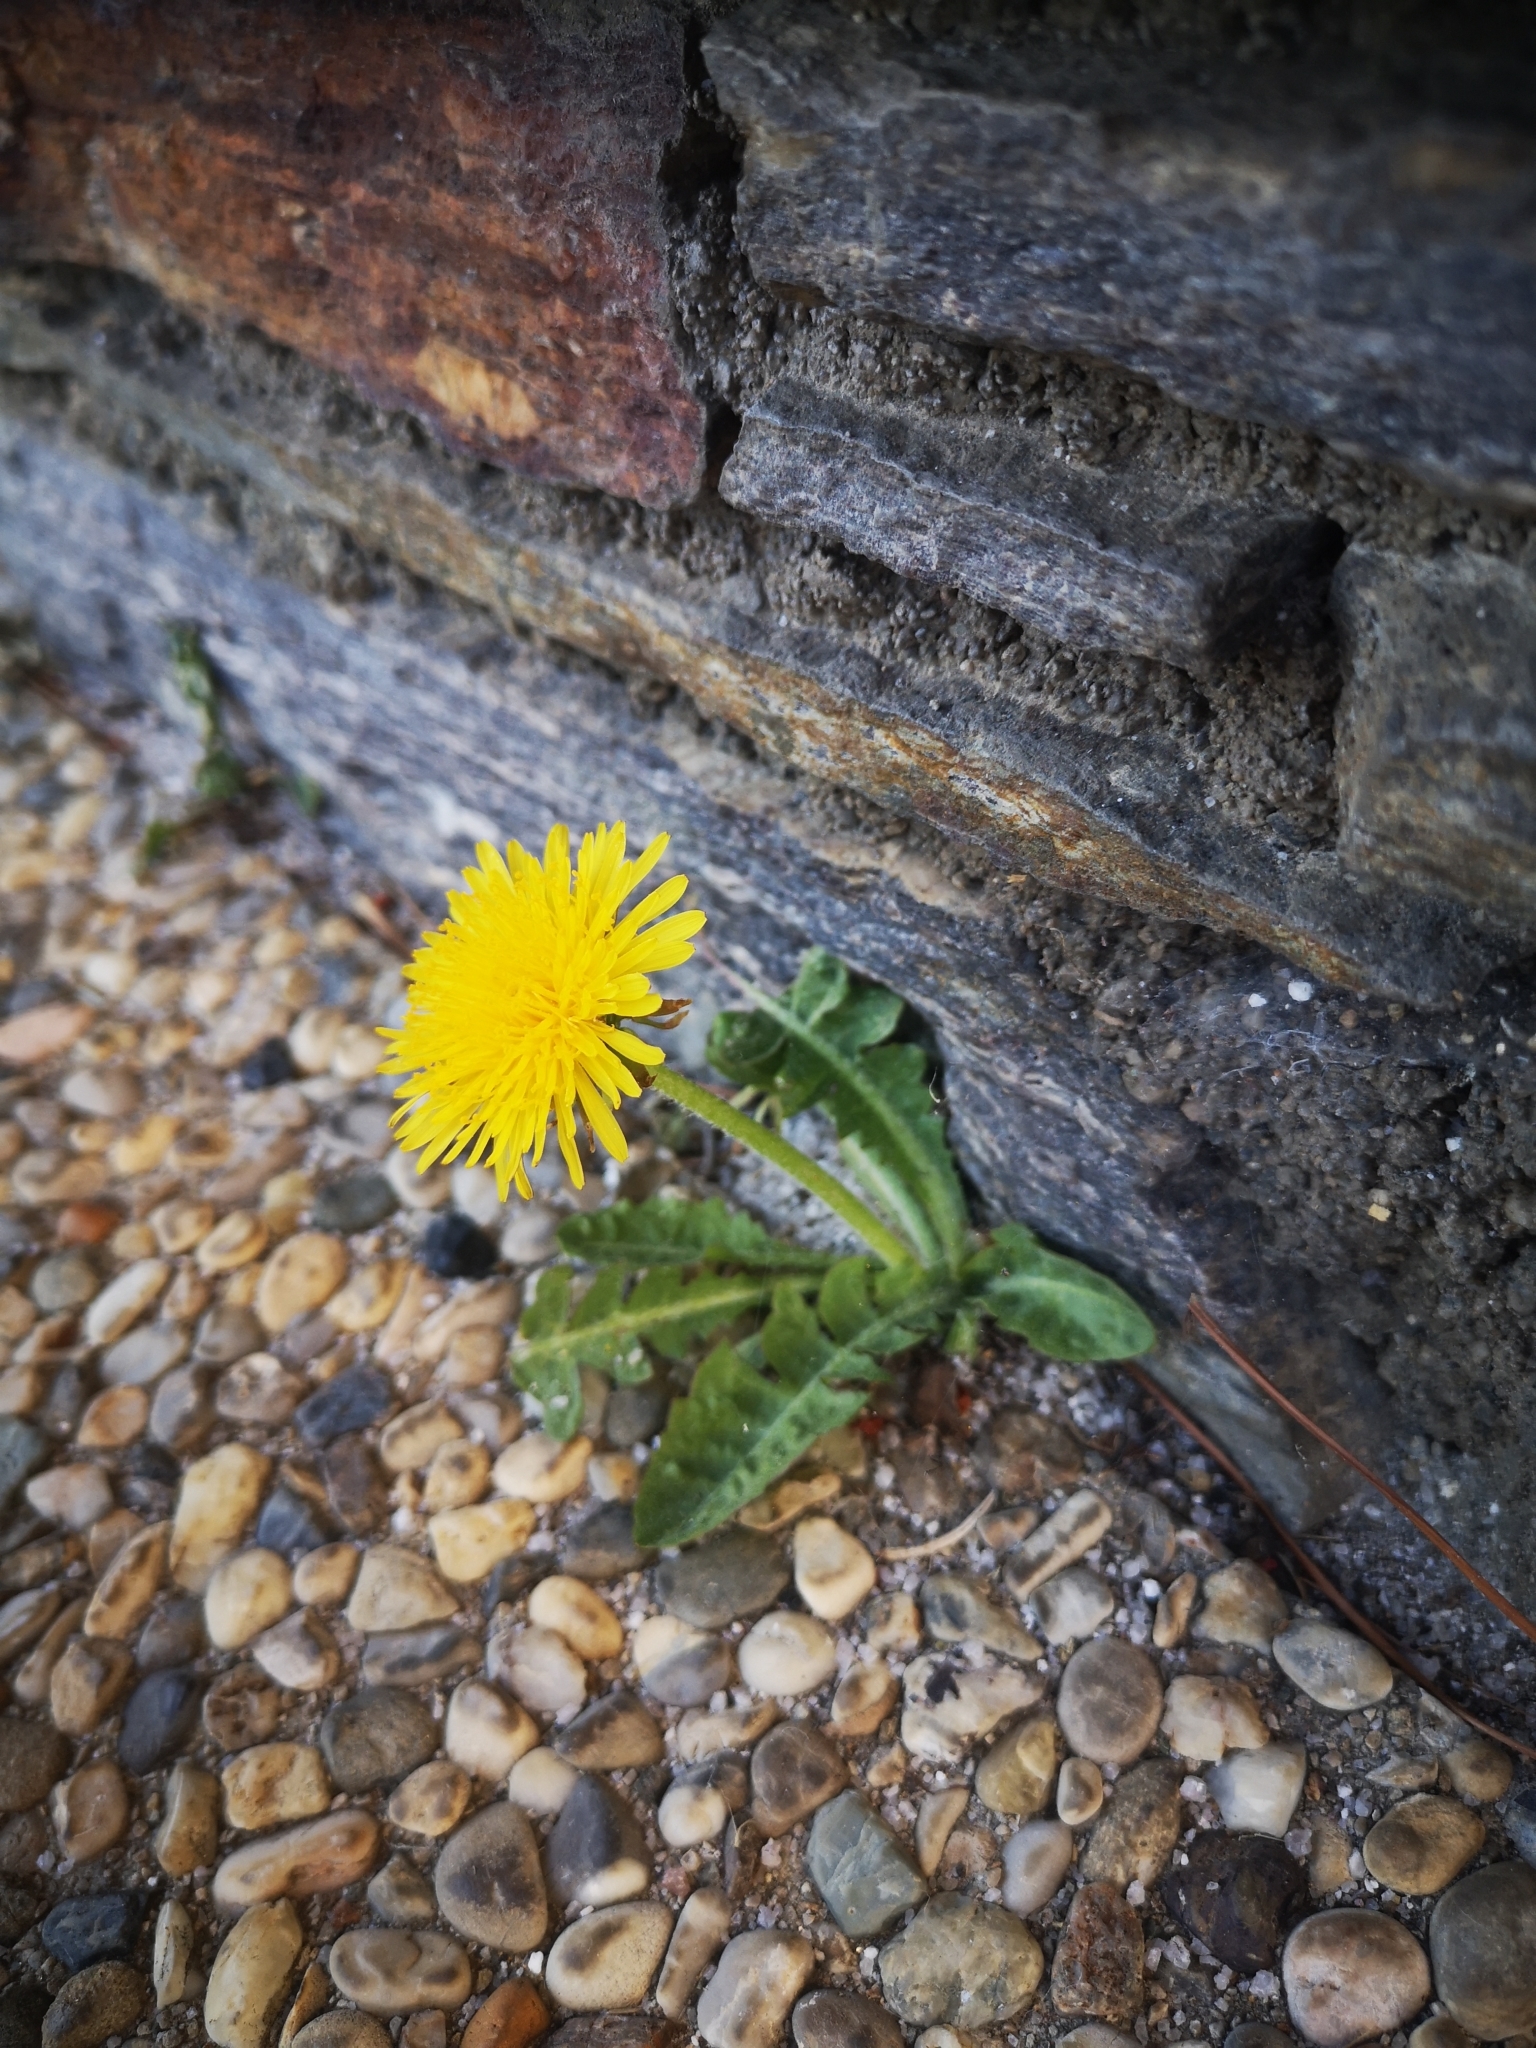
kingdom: Plantae
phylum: Tracheophyta
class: Magnoliopsida
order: Asterales
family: Asteraceae
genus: Taraxacum
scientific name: Taraxacum officinale
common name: Common dandelion
